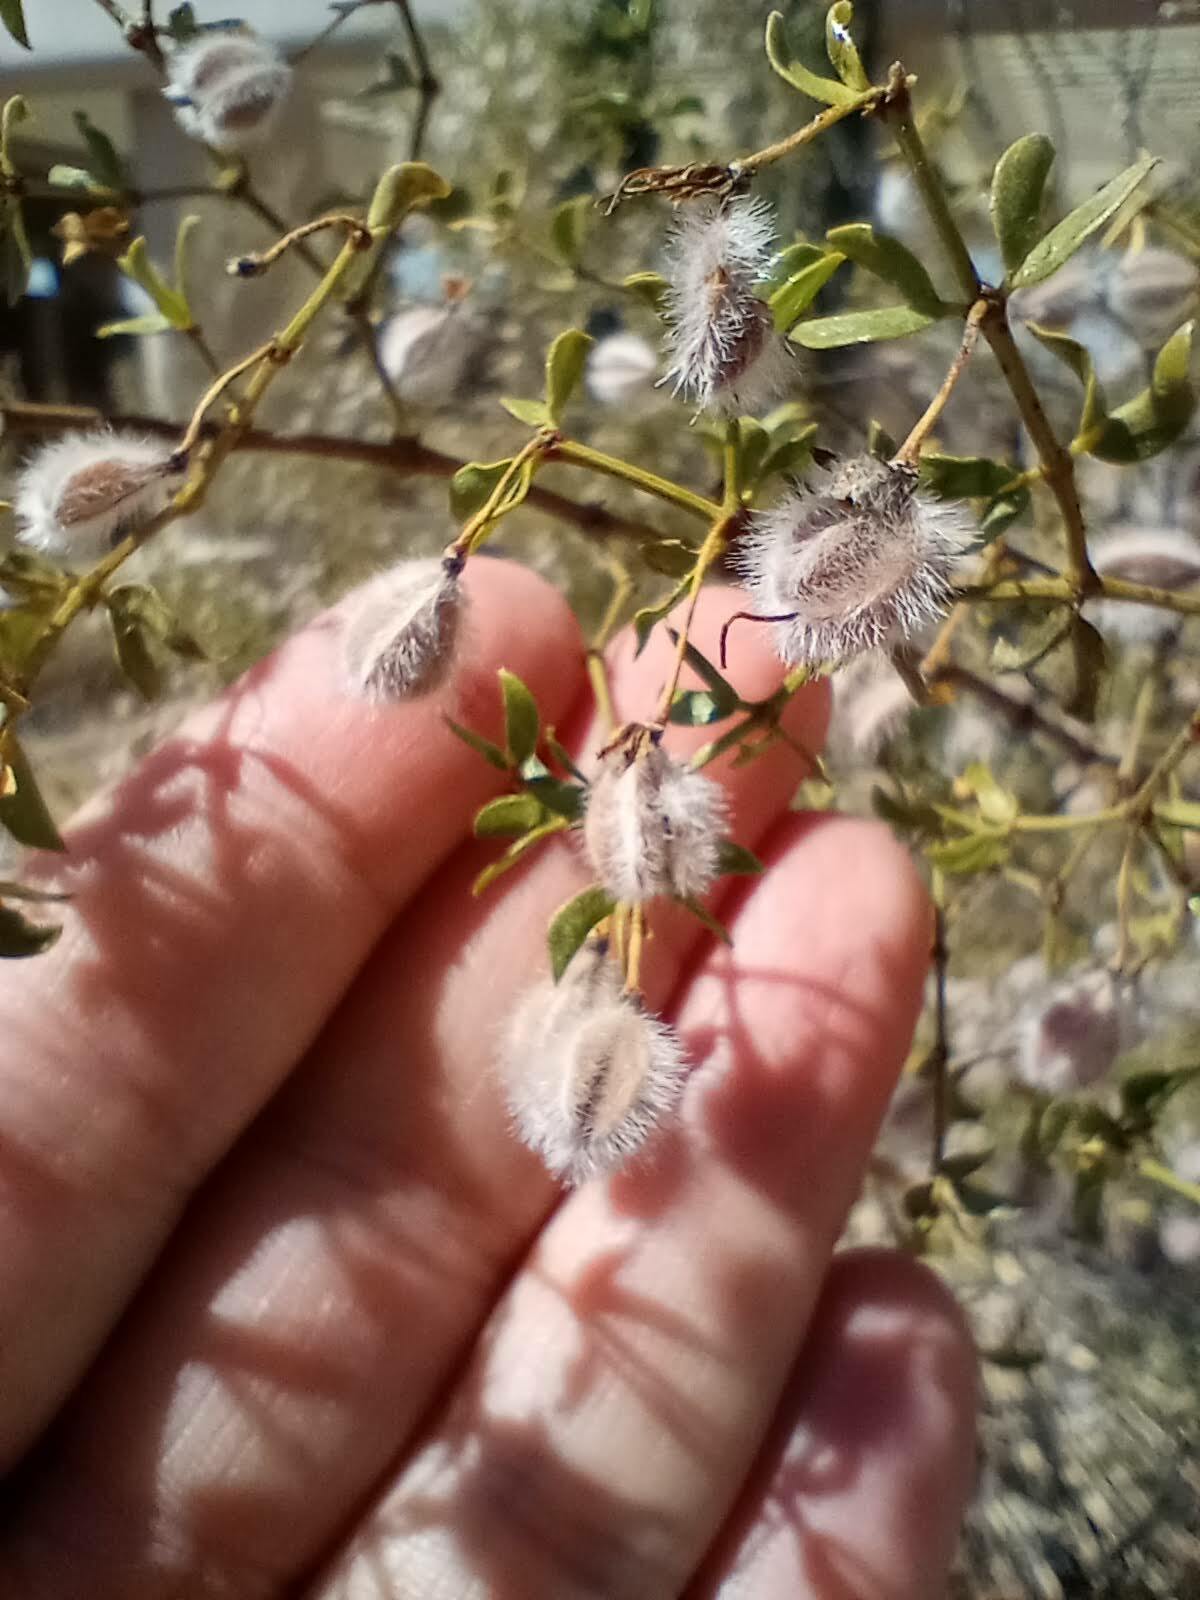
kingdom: Plantae
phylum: Tracheophyta
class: Magnoliopsida
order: Zygophyllales
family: Zygophyllaceae
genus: Larrea
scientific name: Larrea tridentata
